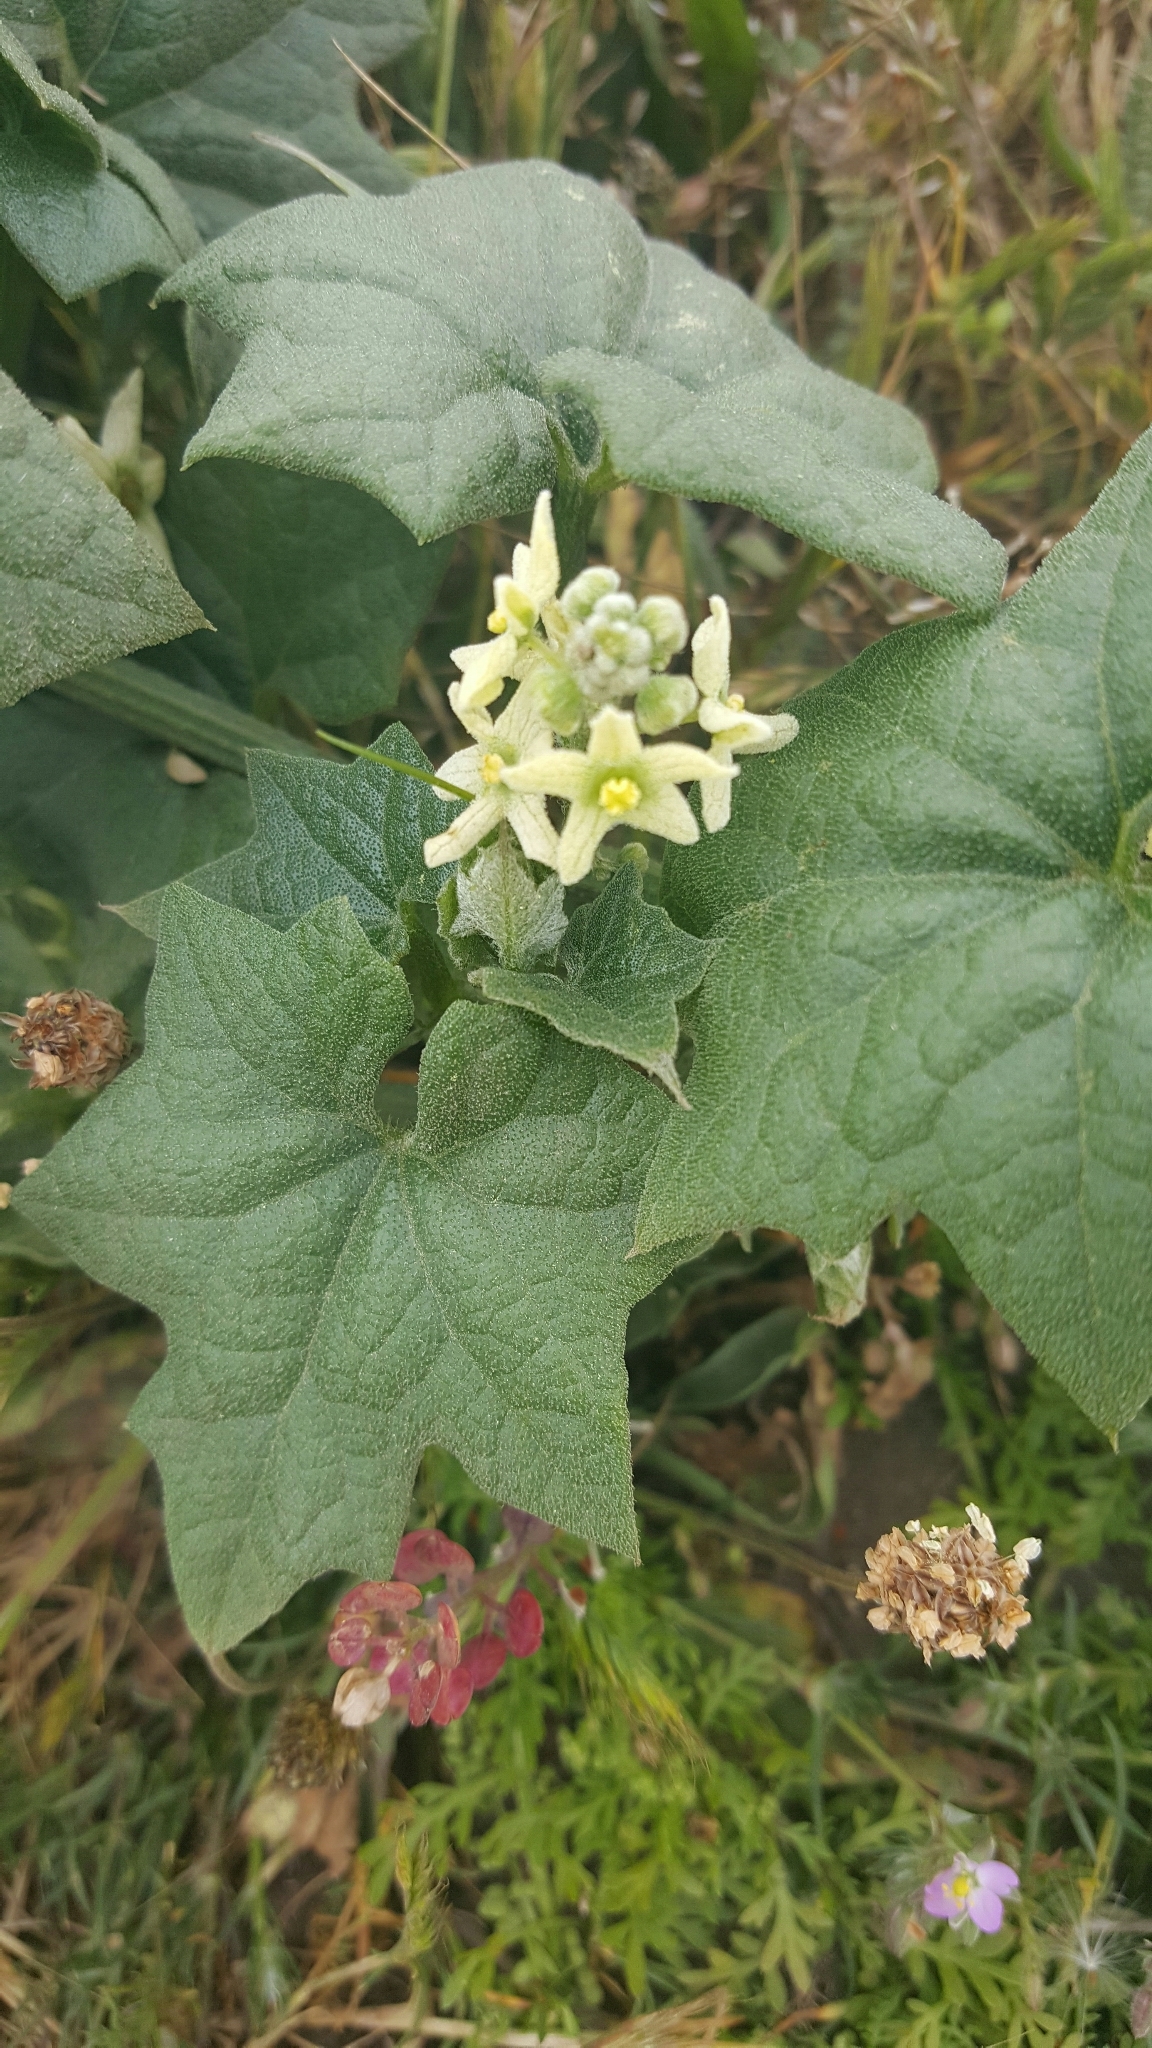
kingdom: Plantae
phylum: Tracheophyta
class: Magnoliopsida
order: Cucurbitales
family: Cucurbitaceae
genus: Marah
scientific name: Marah fabacea
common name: California manroot
